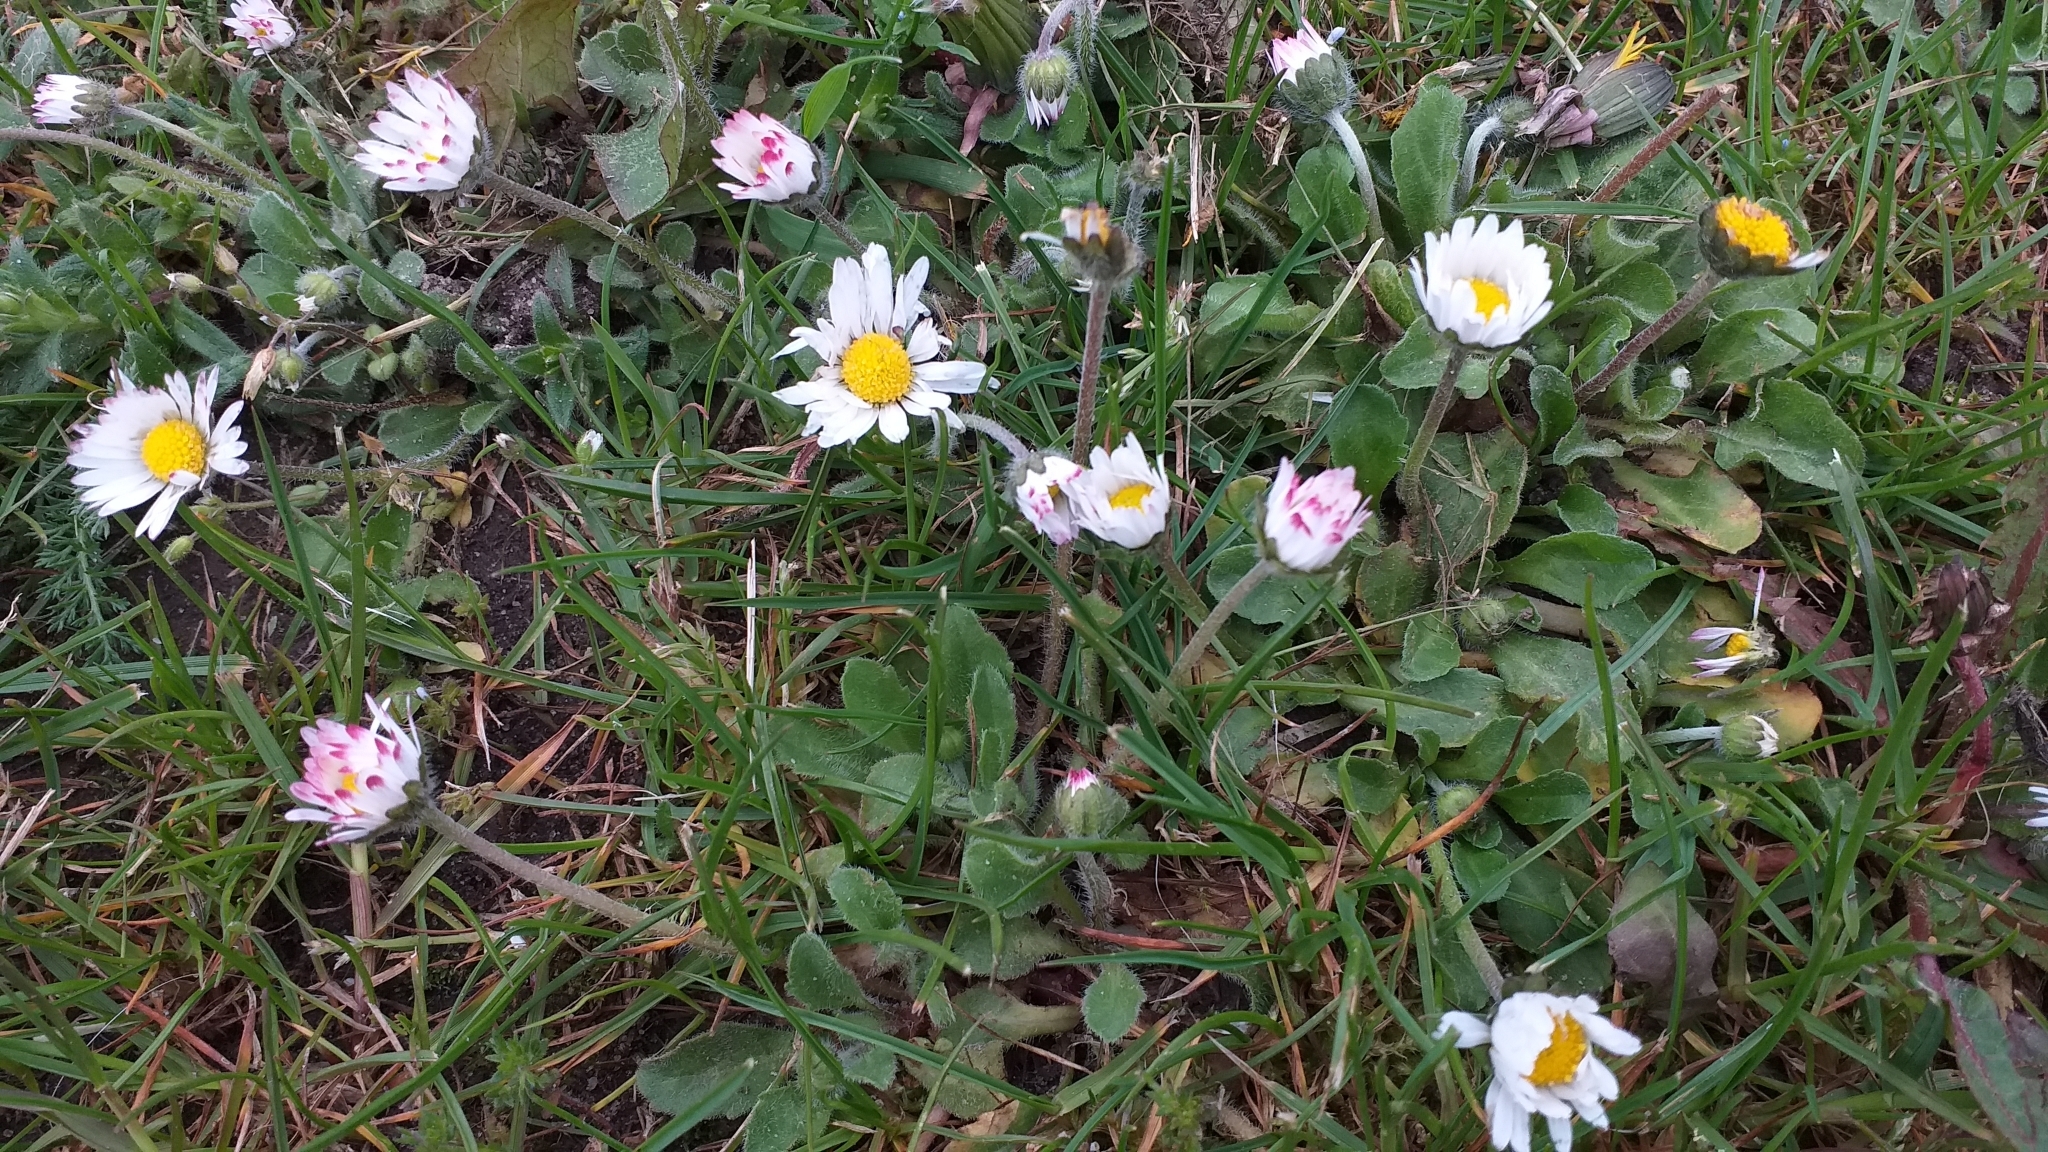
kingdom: Plantae
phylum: Tracheophyta
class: Magnoliopsida
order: Asterales
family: Asteraceae
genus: Bellis
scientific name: Bellis perennis
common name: Lawndaisy
